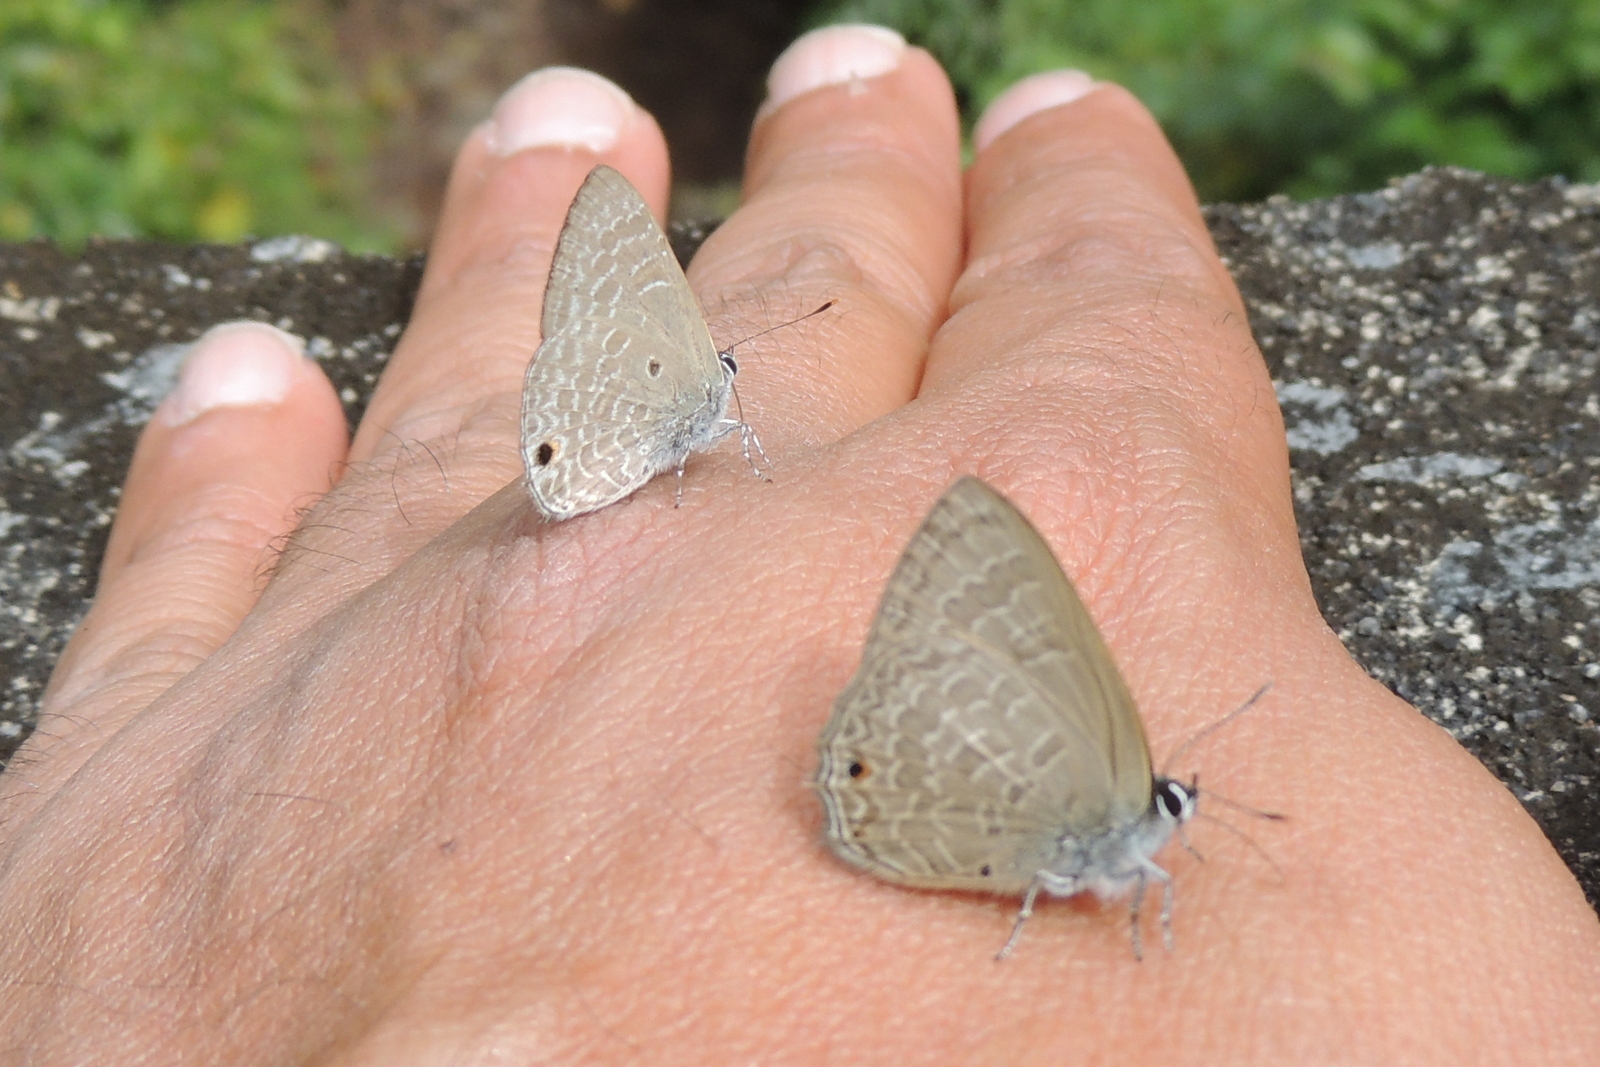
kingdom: Animalia
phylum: Arthropoda
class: Insecta
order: Lepidoptera
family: Lycaenidae
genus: Anthene
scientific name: Anthene lycaenina
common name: Pointed ciliate blue
